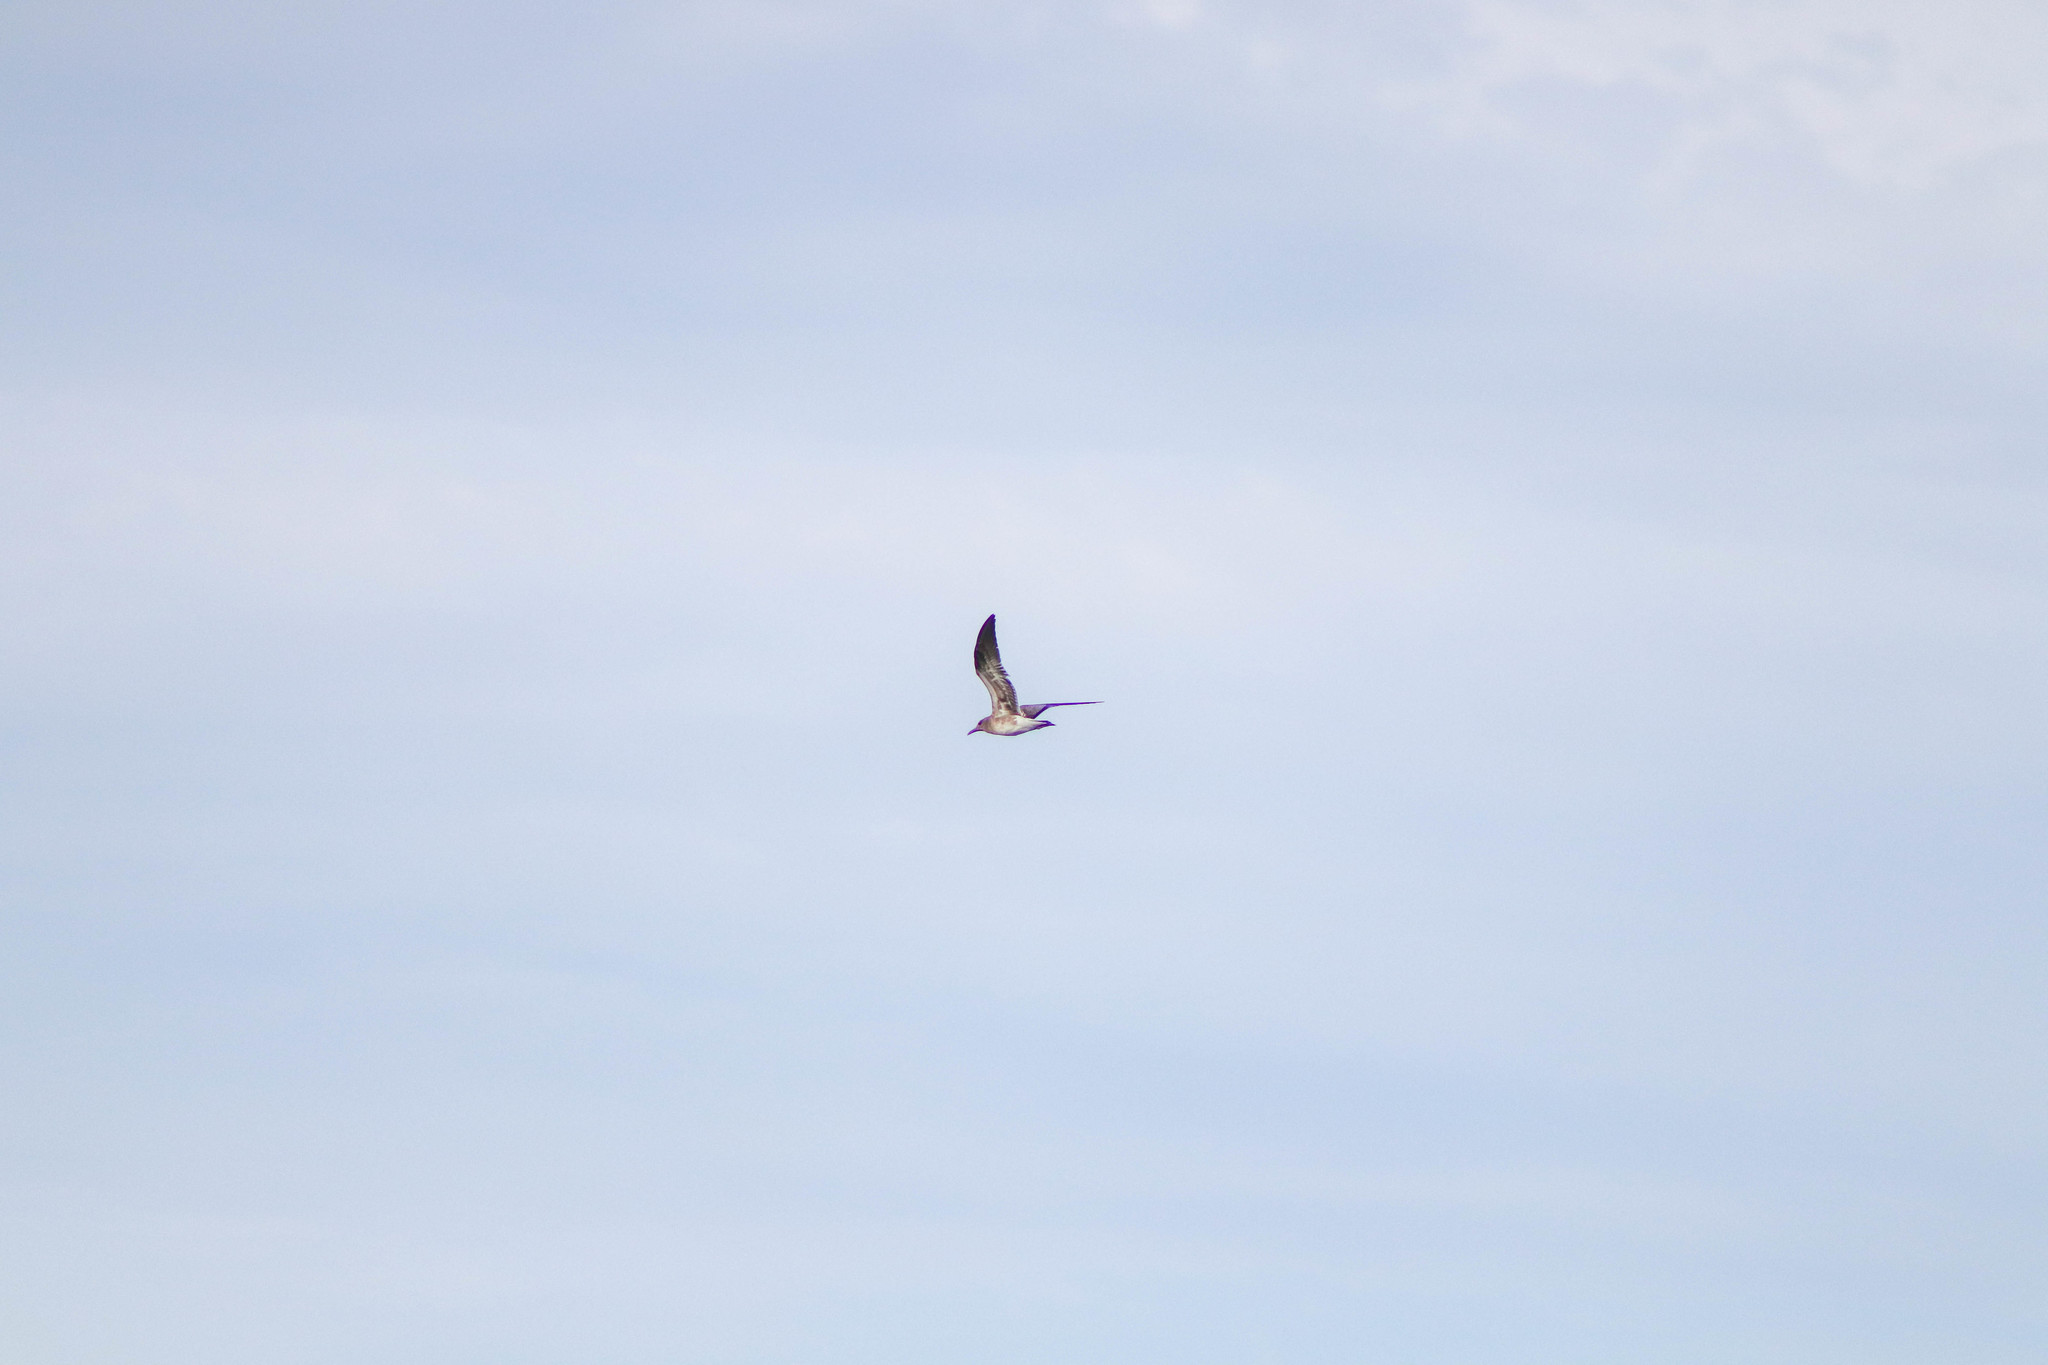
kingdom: Animalia
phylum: Chordata
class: Aves
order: Charadriiformes
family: Laridae
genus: Leucophaeus
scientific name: Leucophaeus atricilla
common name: Laughing gull
